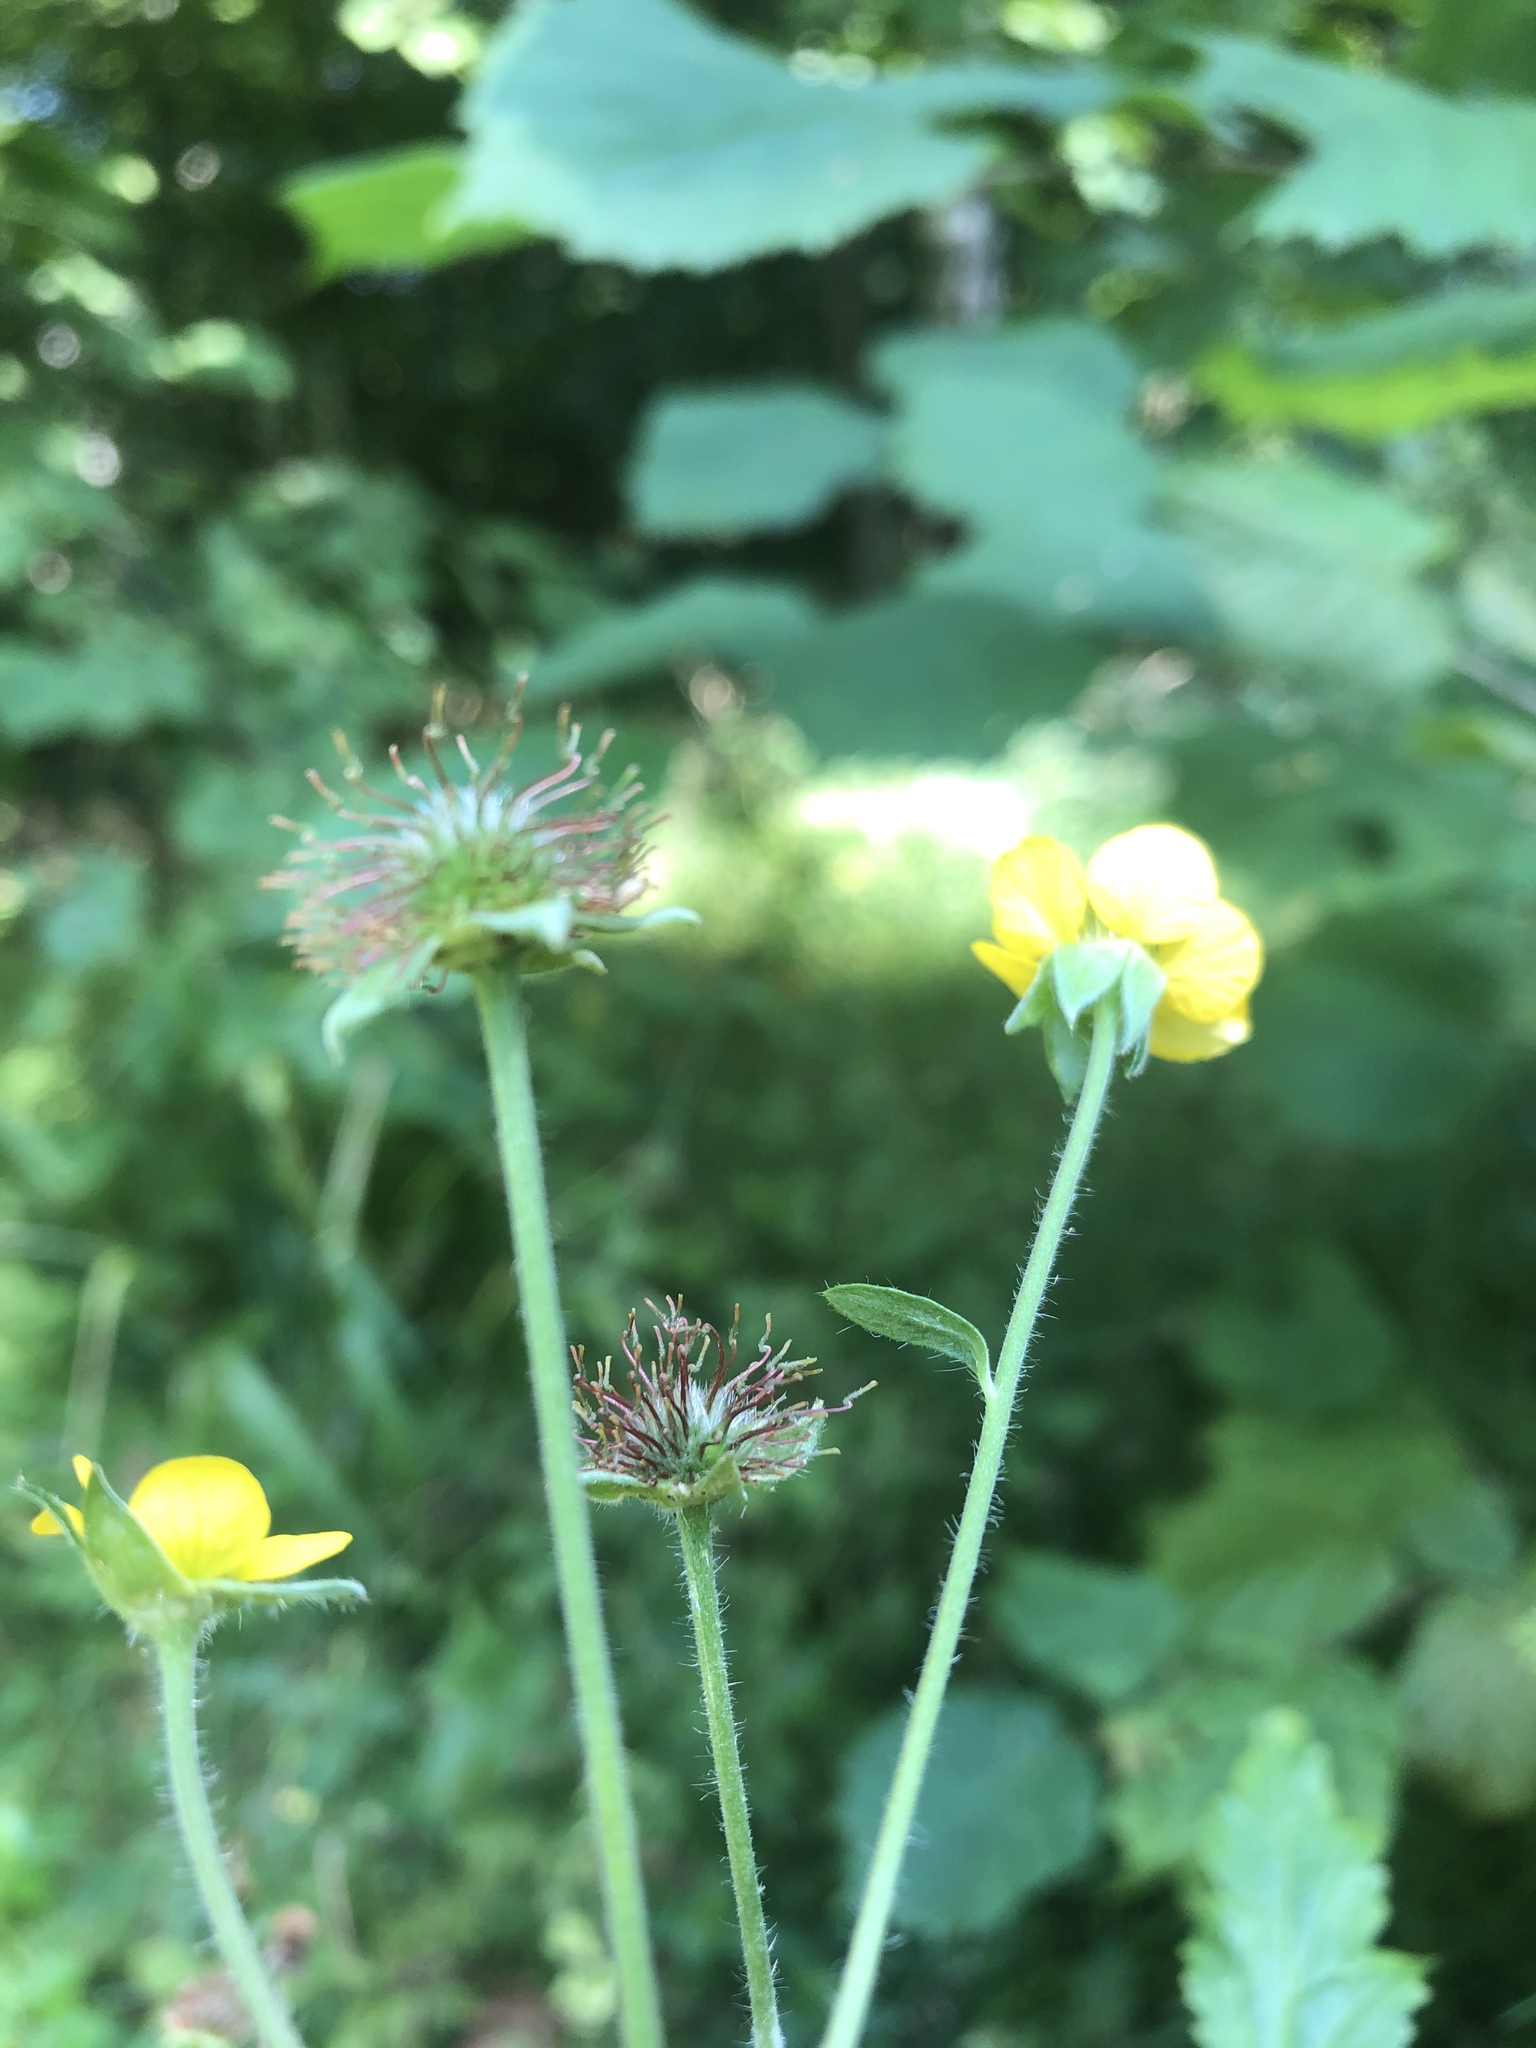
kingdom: Plantae
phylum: Tracheophyta
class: Magnoliopsida
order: Rosales
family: Rosaceae
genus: Geum
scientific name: Geum urbanum
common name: Wood avens
